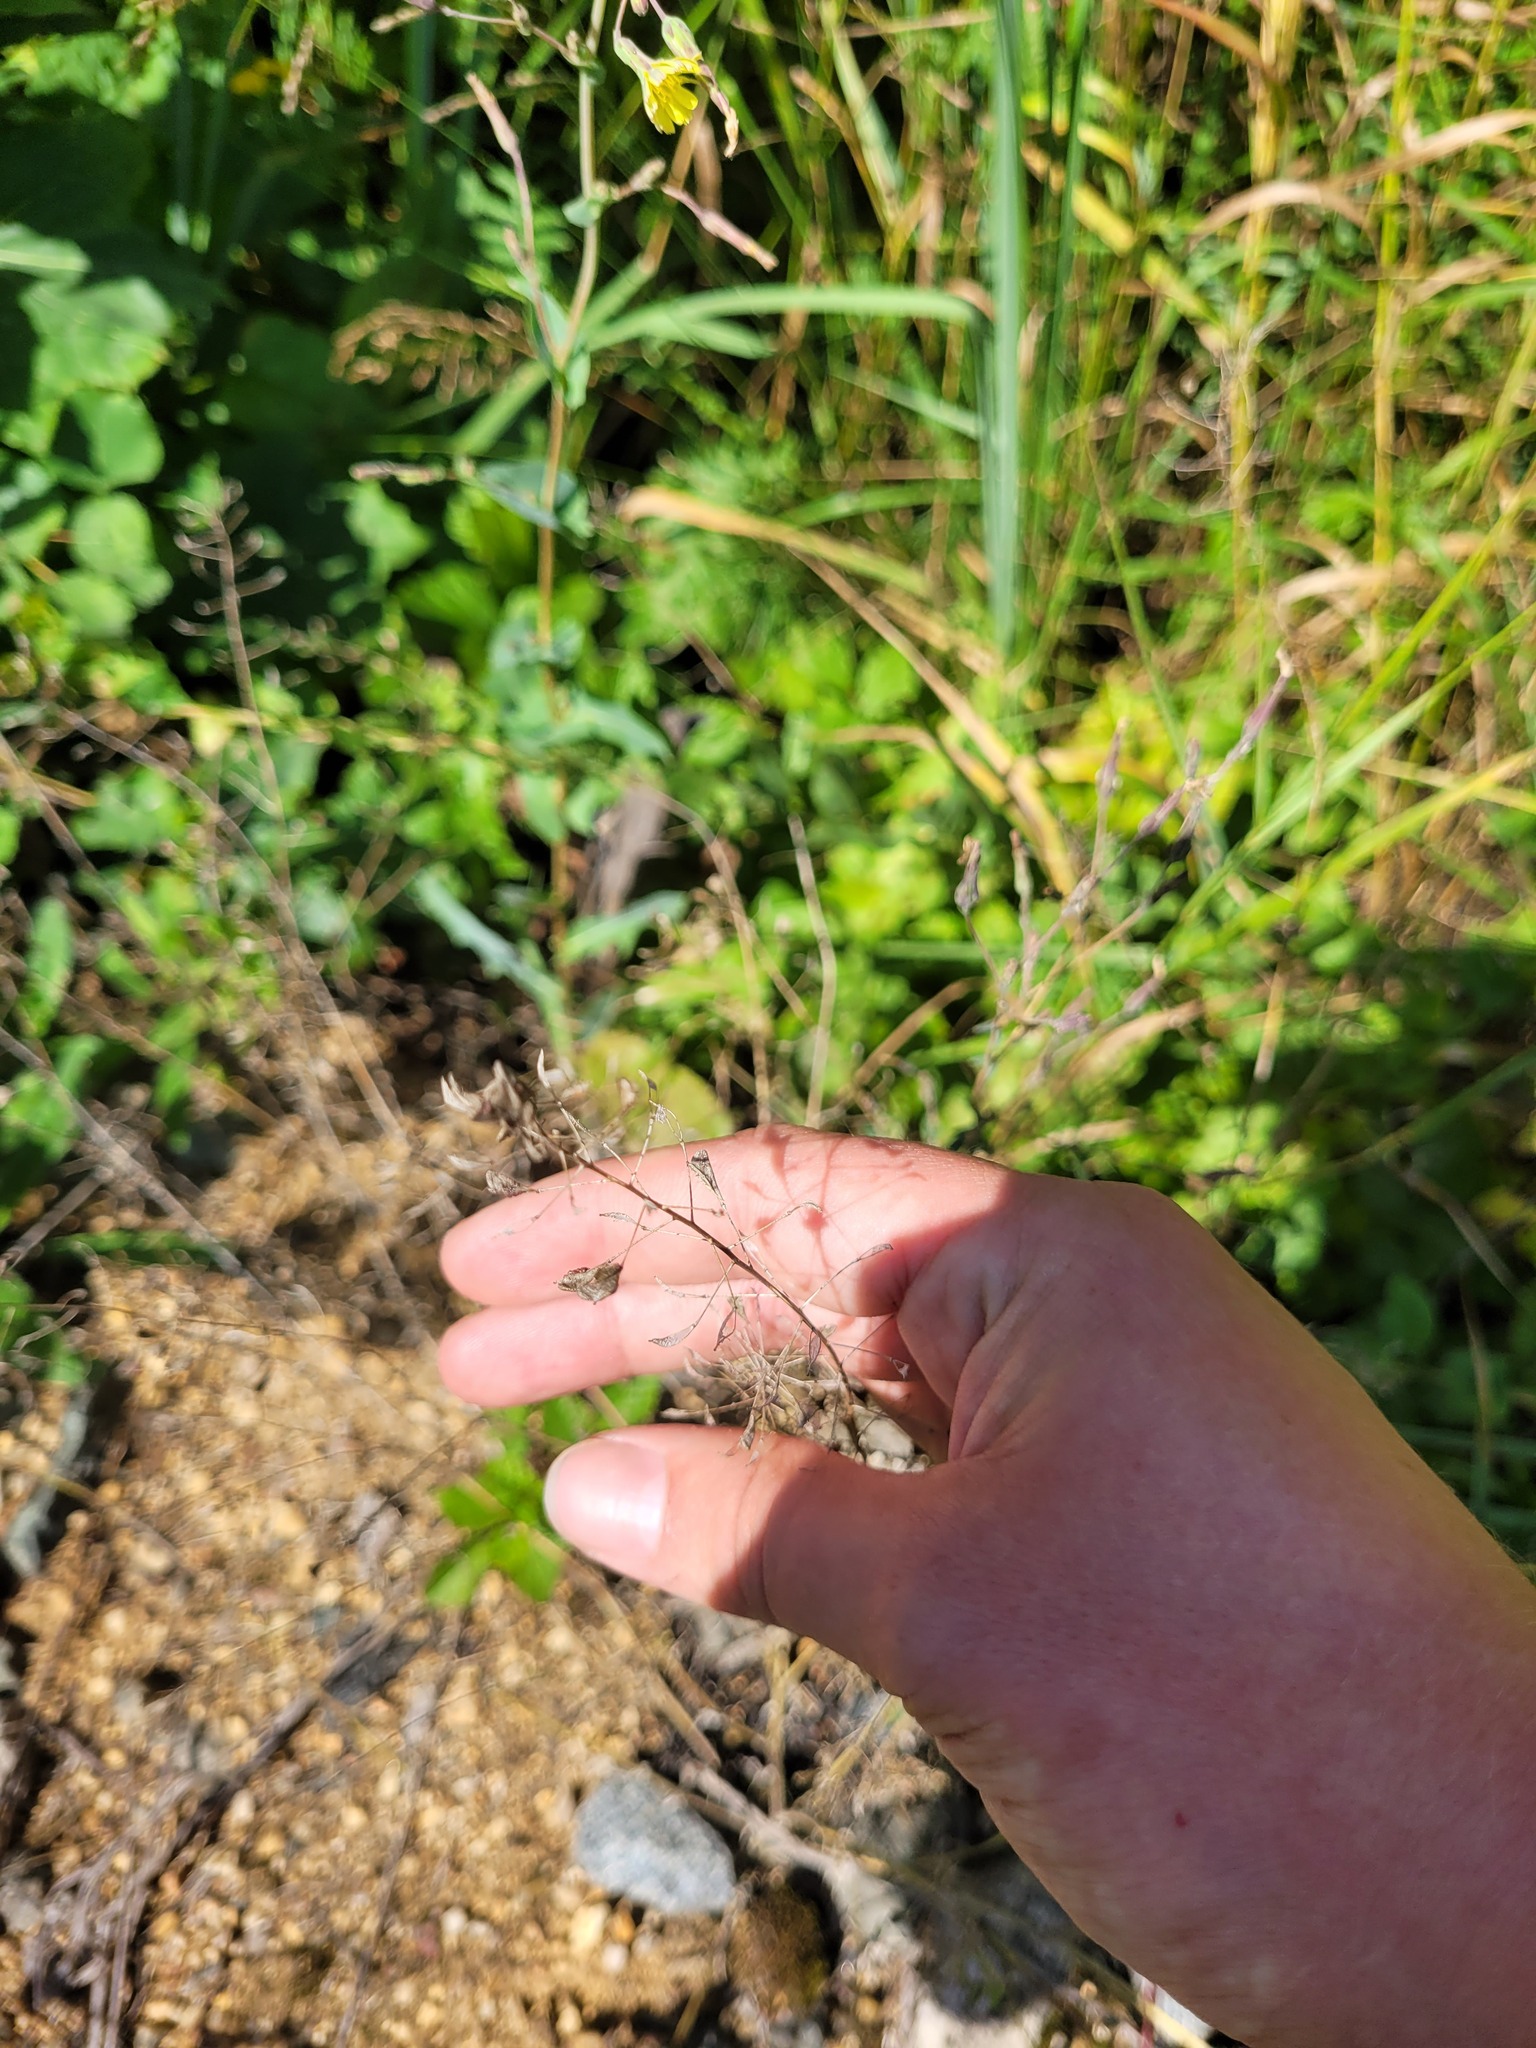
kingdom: Plantae
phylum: Tracheophyta
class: Magnoliopsida
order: Brassicales
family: Brassicaceae
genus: Capsella
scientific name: Capsella bursa-pastoris
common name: Shepherd's purse
